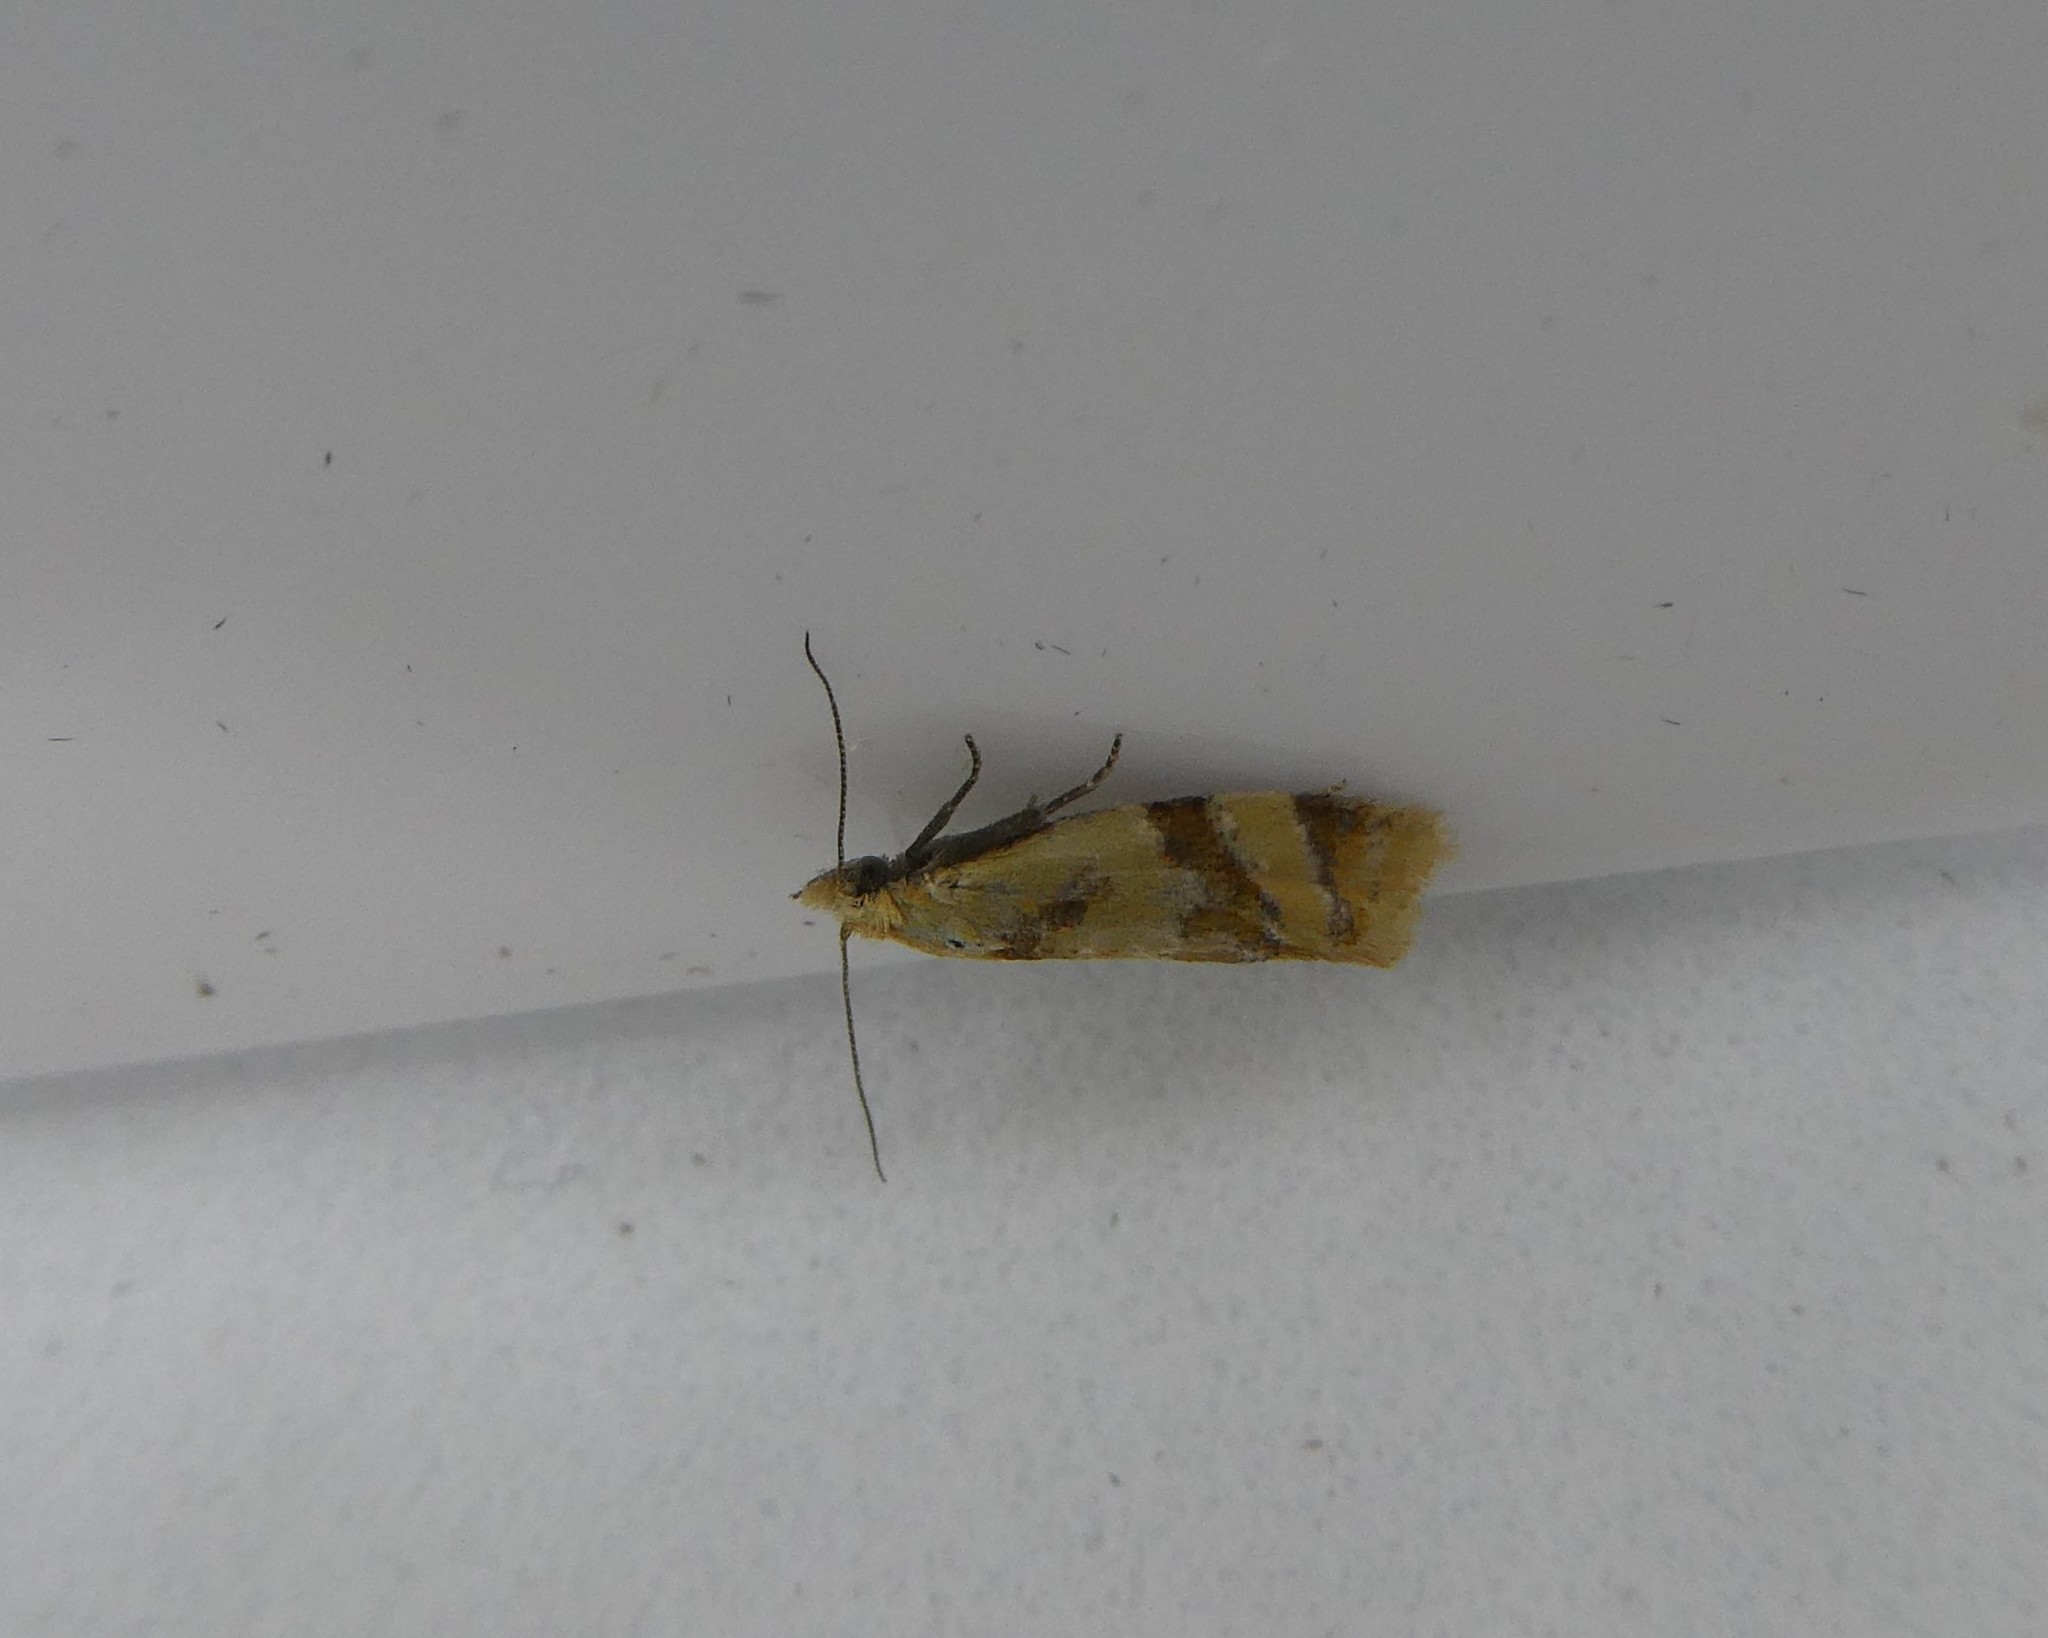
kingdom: Animalia
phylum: Arthropoda
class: Insecta
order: Lepidoptera
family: Tortricidae
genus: Aethes
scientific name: Aethes argentilimitana
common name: Silver-bordered aethes
